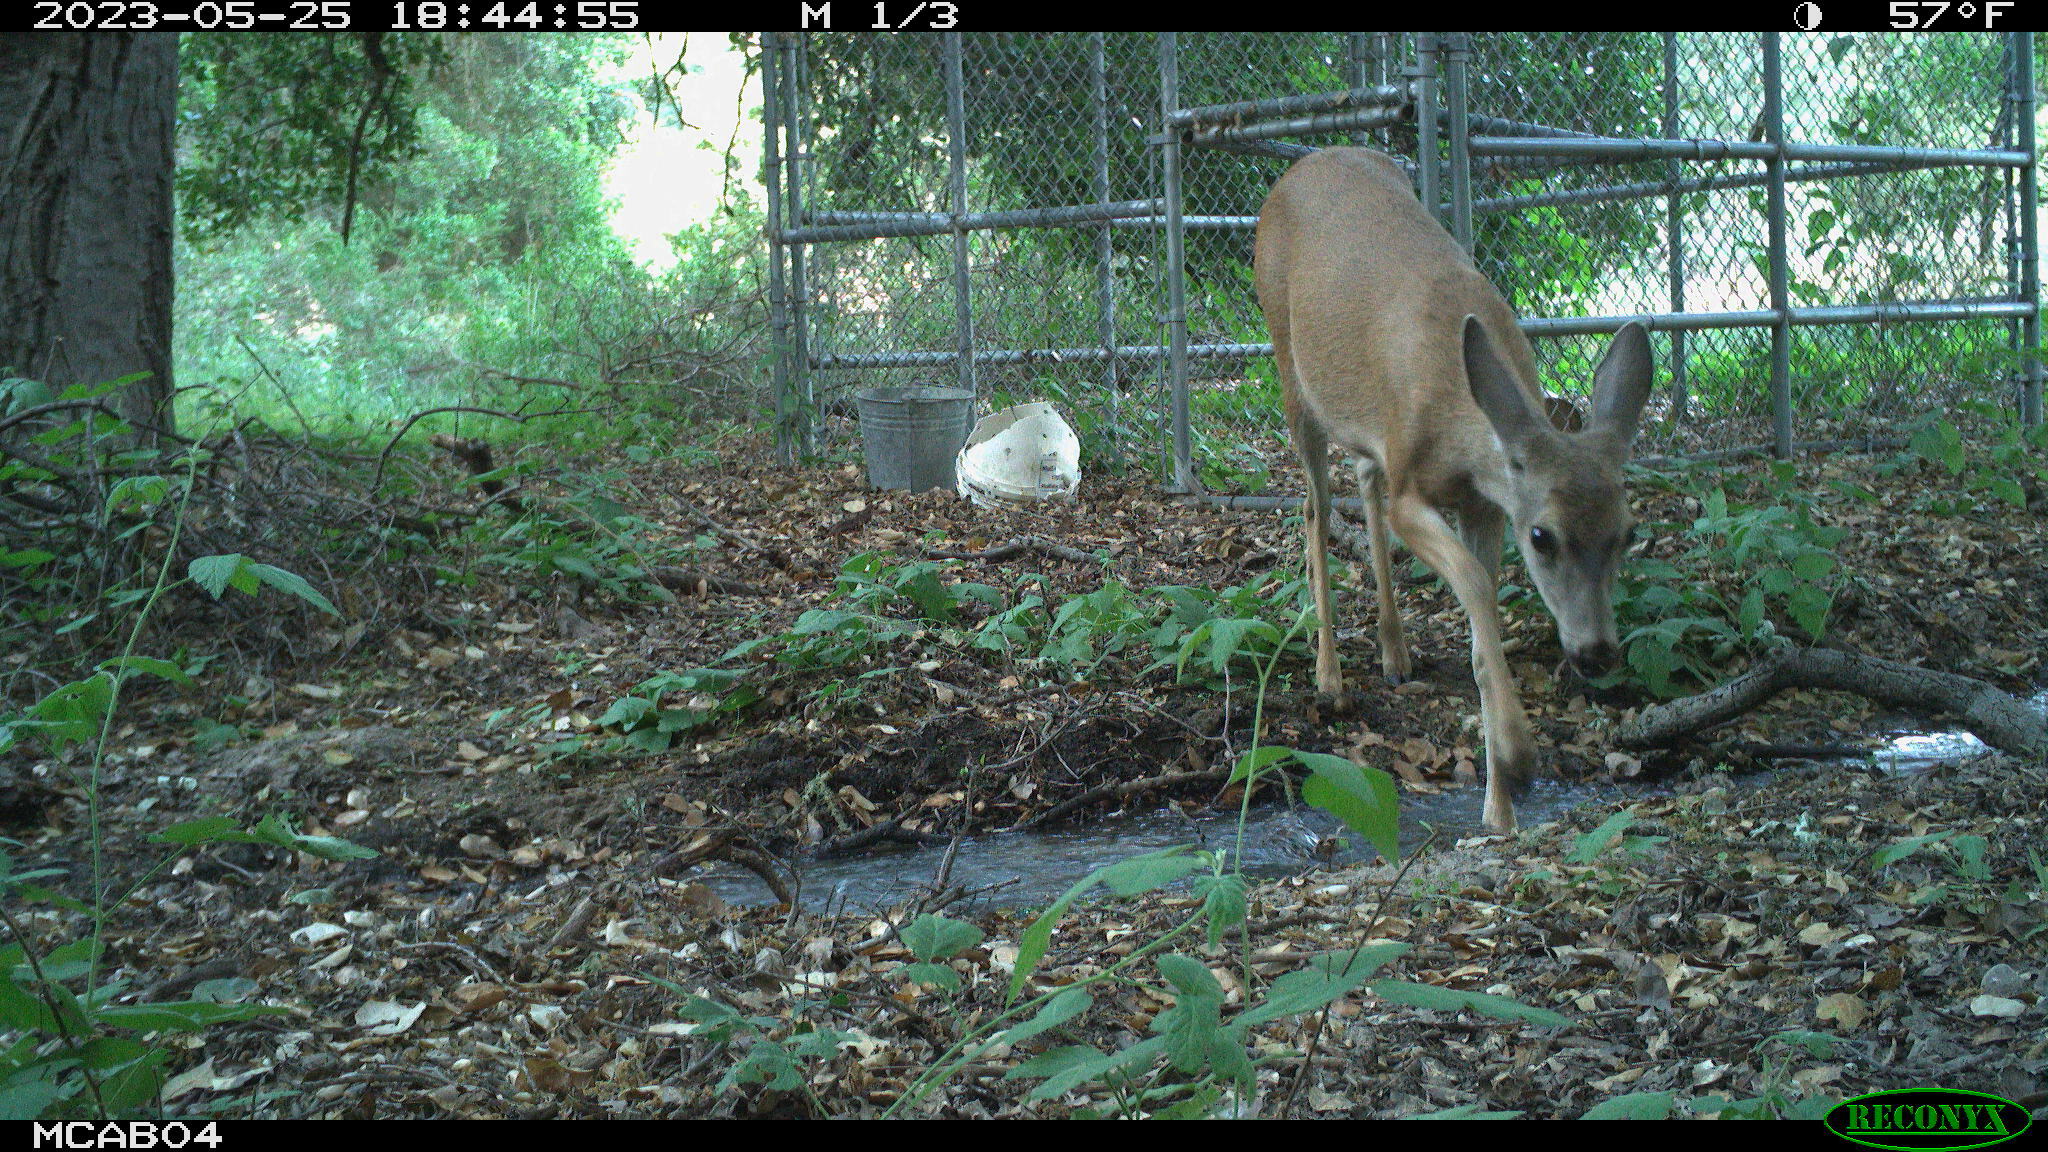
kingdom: Animalia
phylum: Chordata
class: Mammalia
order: Artiodactyla
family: Cervidae
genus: Odocoileus
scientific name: Odocoileus hemionus
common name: Mule deer
